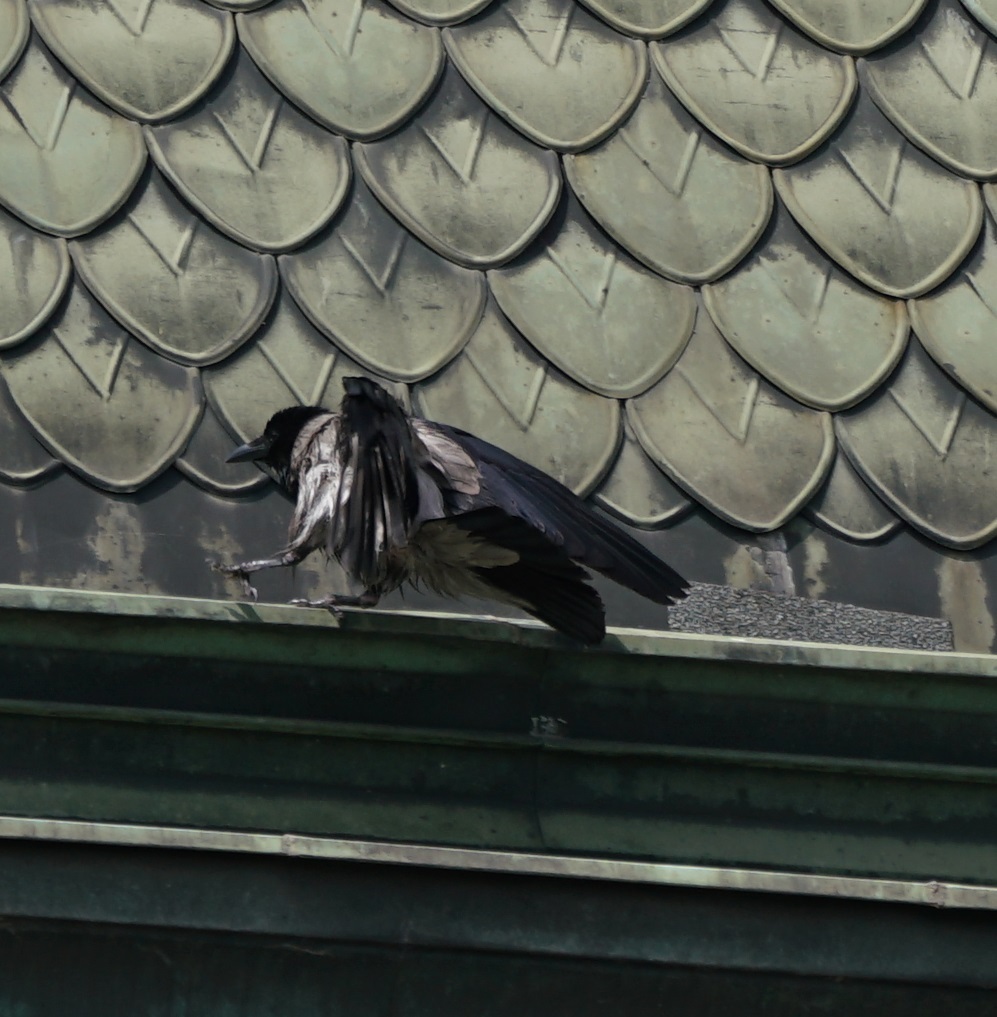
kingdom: Animalia
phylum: Chordata
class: Aves
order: Passeriformes
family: Corvidae
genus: Corvus
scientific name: Corvus cornix
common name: Hooded crow
